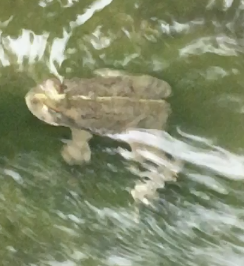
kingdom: Animalia
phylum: Chordata
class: Amphibia
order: Anura
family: Bufonidae
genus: Anaxyrus
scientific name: Anaxyrus boreas
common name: Western toad
